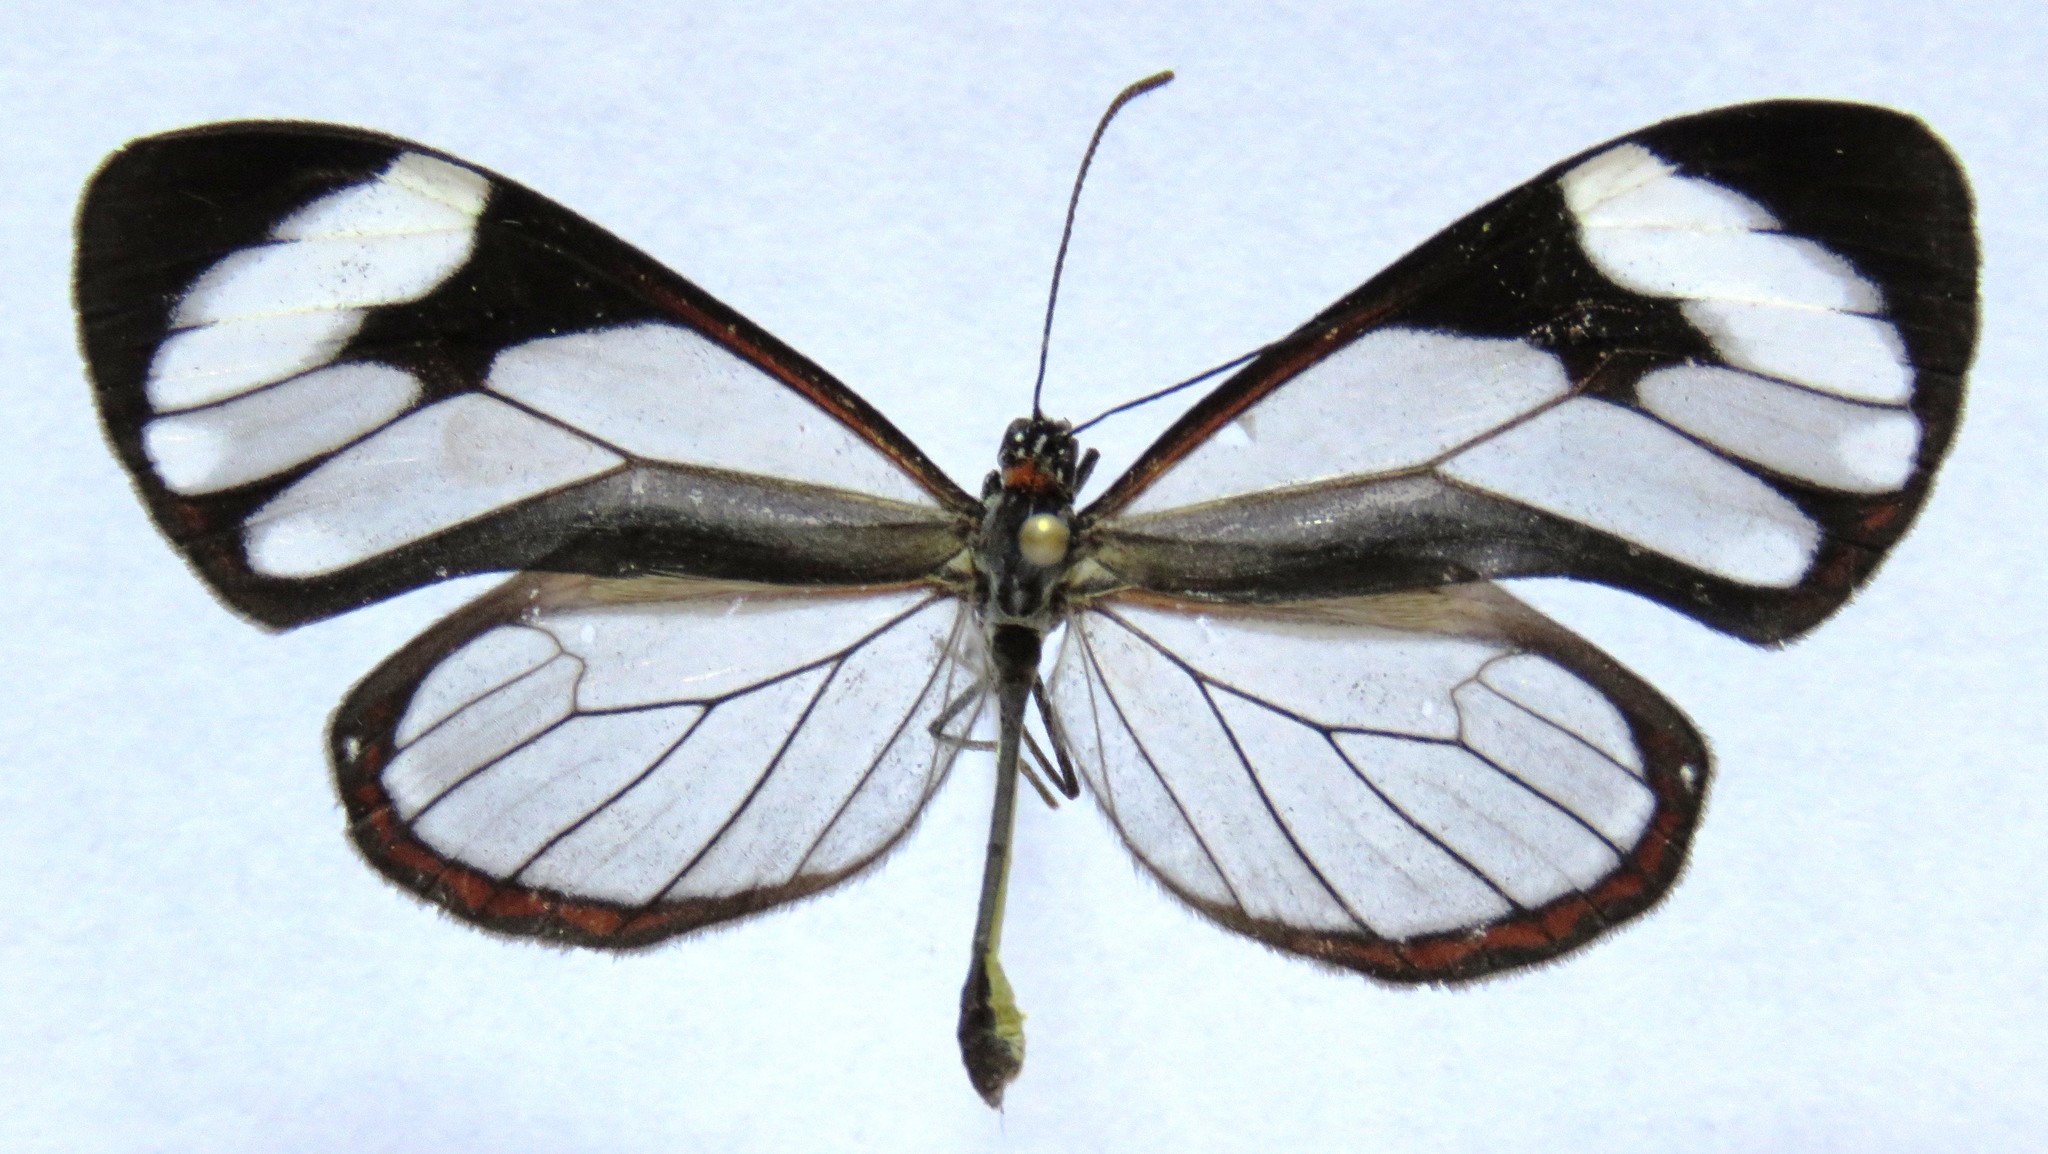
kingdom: Animalia
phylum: Arthropoda
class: Insecta
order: Lepidoptera
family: Nymphalidae
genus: Ithomia
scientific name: Ithomia patilla
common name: Patilla clearwing
